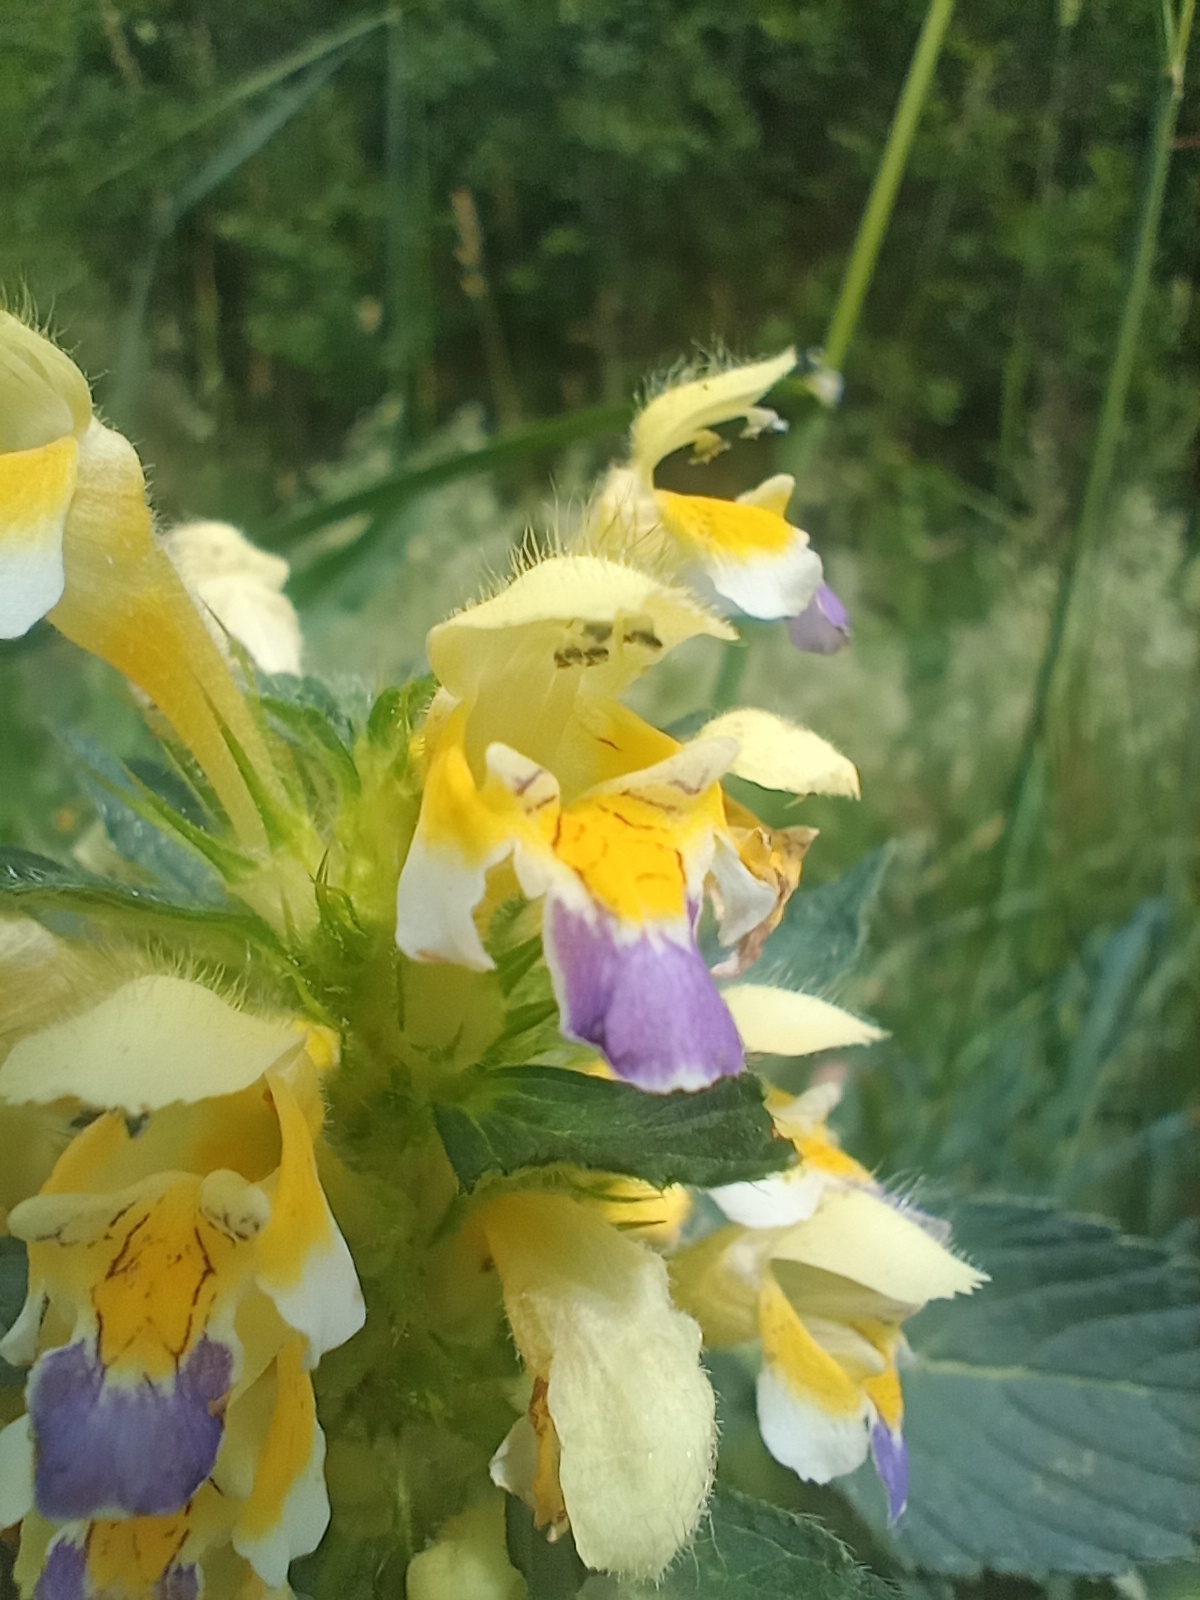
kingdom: Plantae
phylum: Tracheophyta
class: Magnoliopsida
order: Lamiales
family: Lamiaceae
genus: Galeopsis
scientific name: Galeopsis speciosa
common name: Large-flowered hemp-nettle
